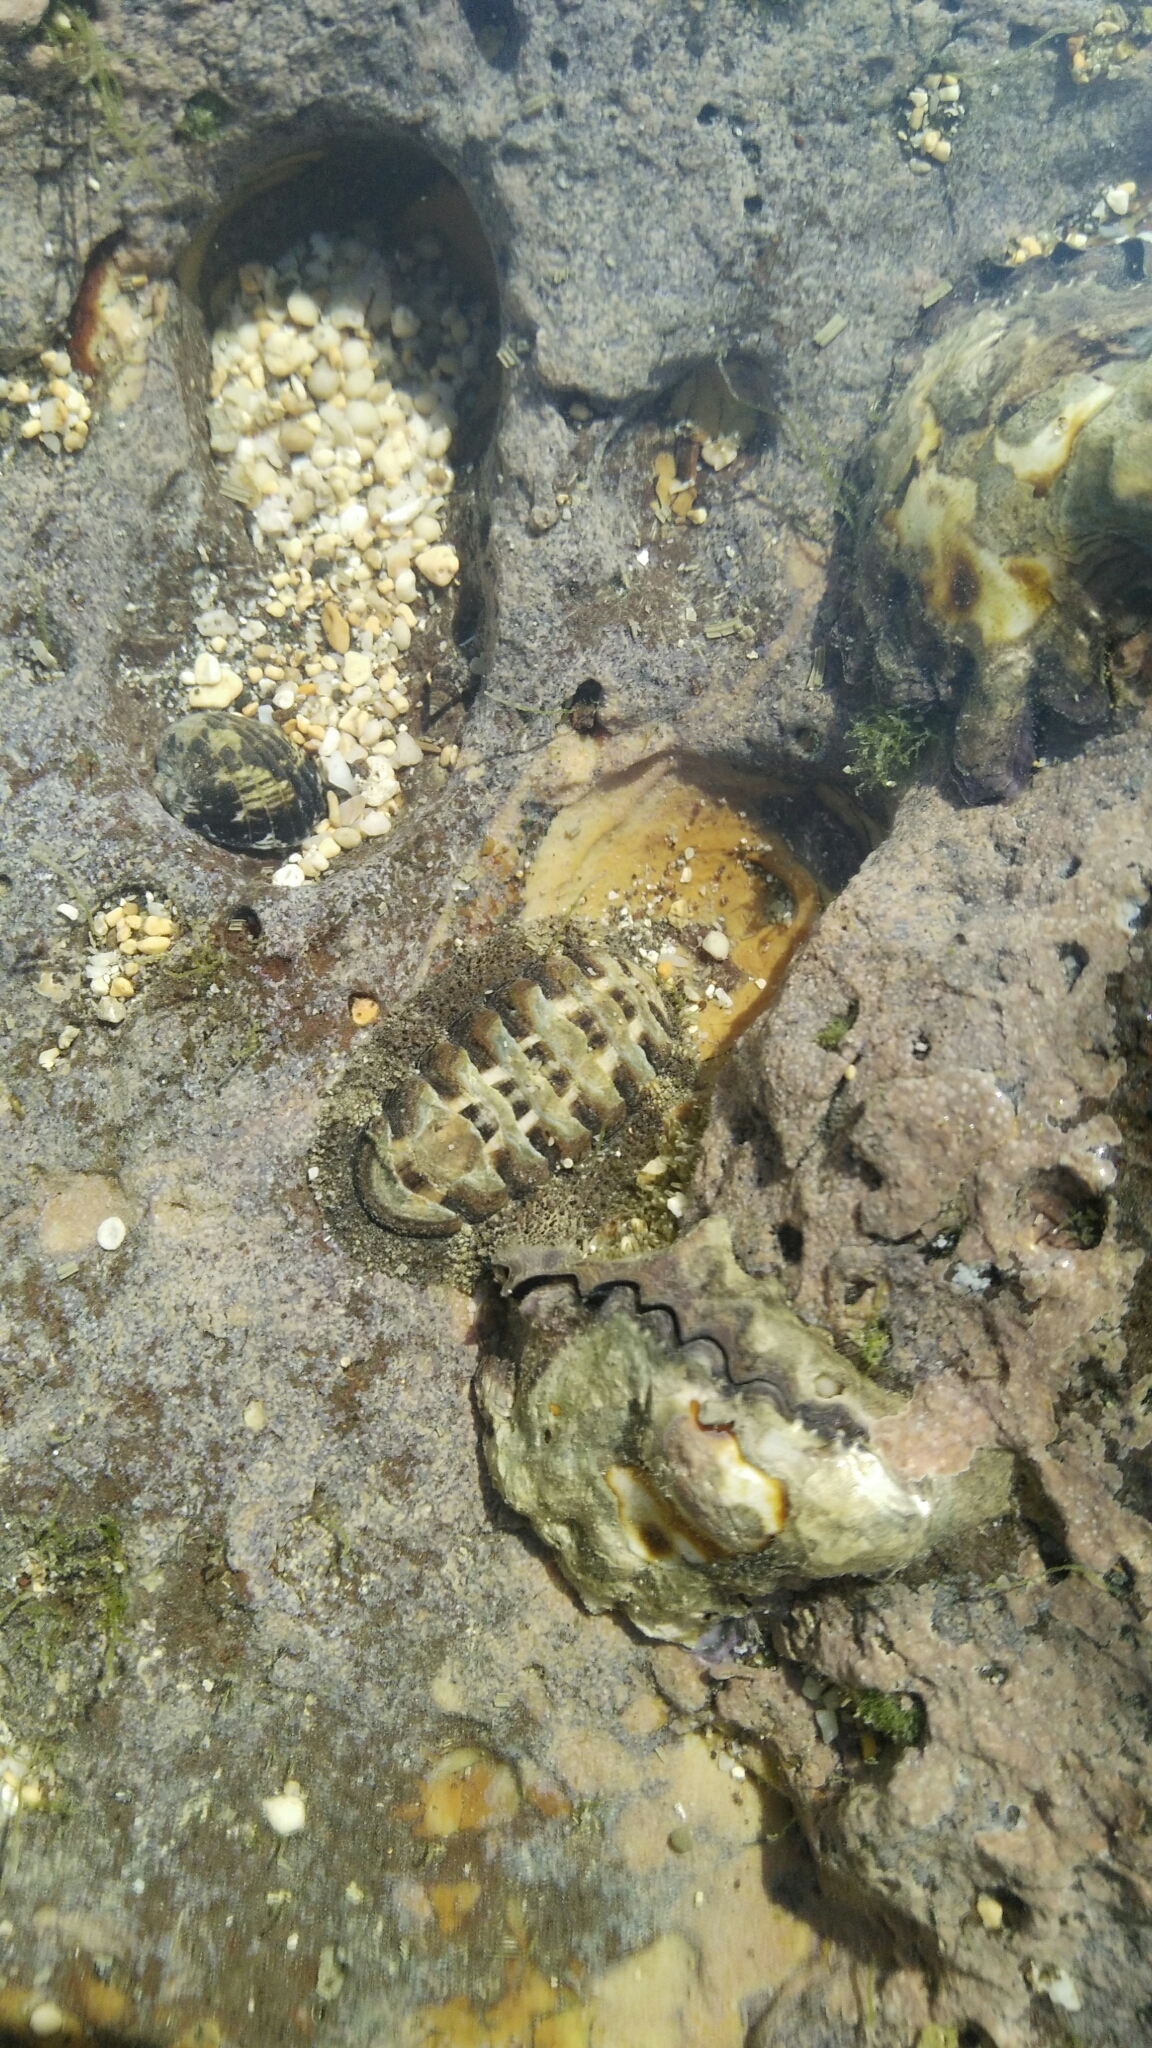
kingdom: Animalia
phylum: Mollusca
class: Polyplacophora
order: Chitonida
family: Chitonidae
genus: Liolophura
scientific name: Liolophura japonica
